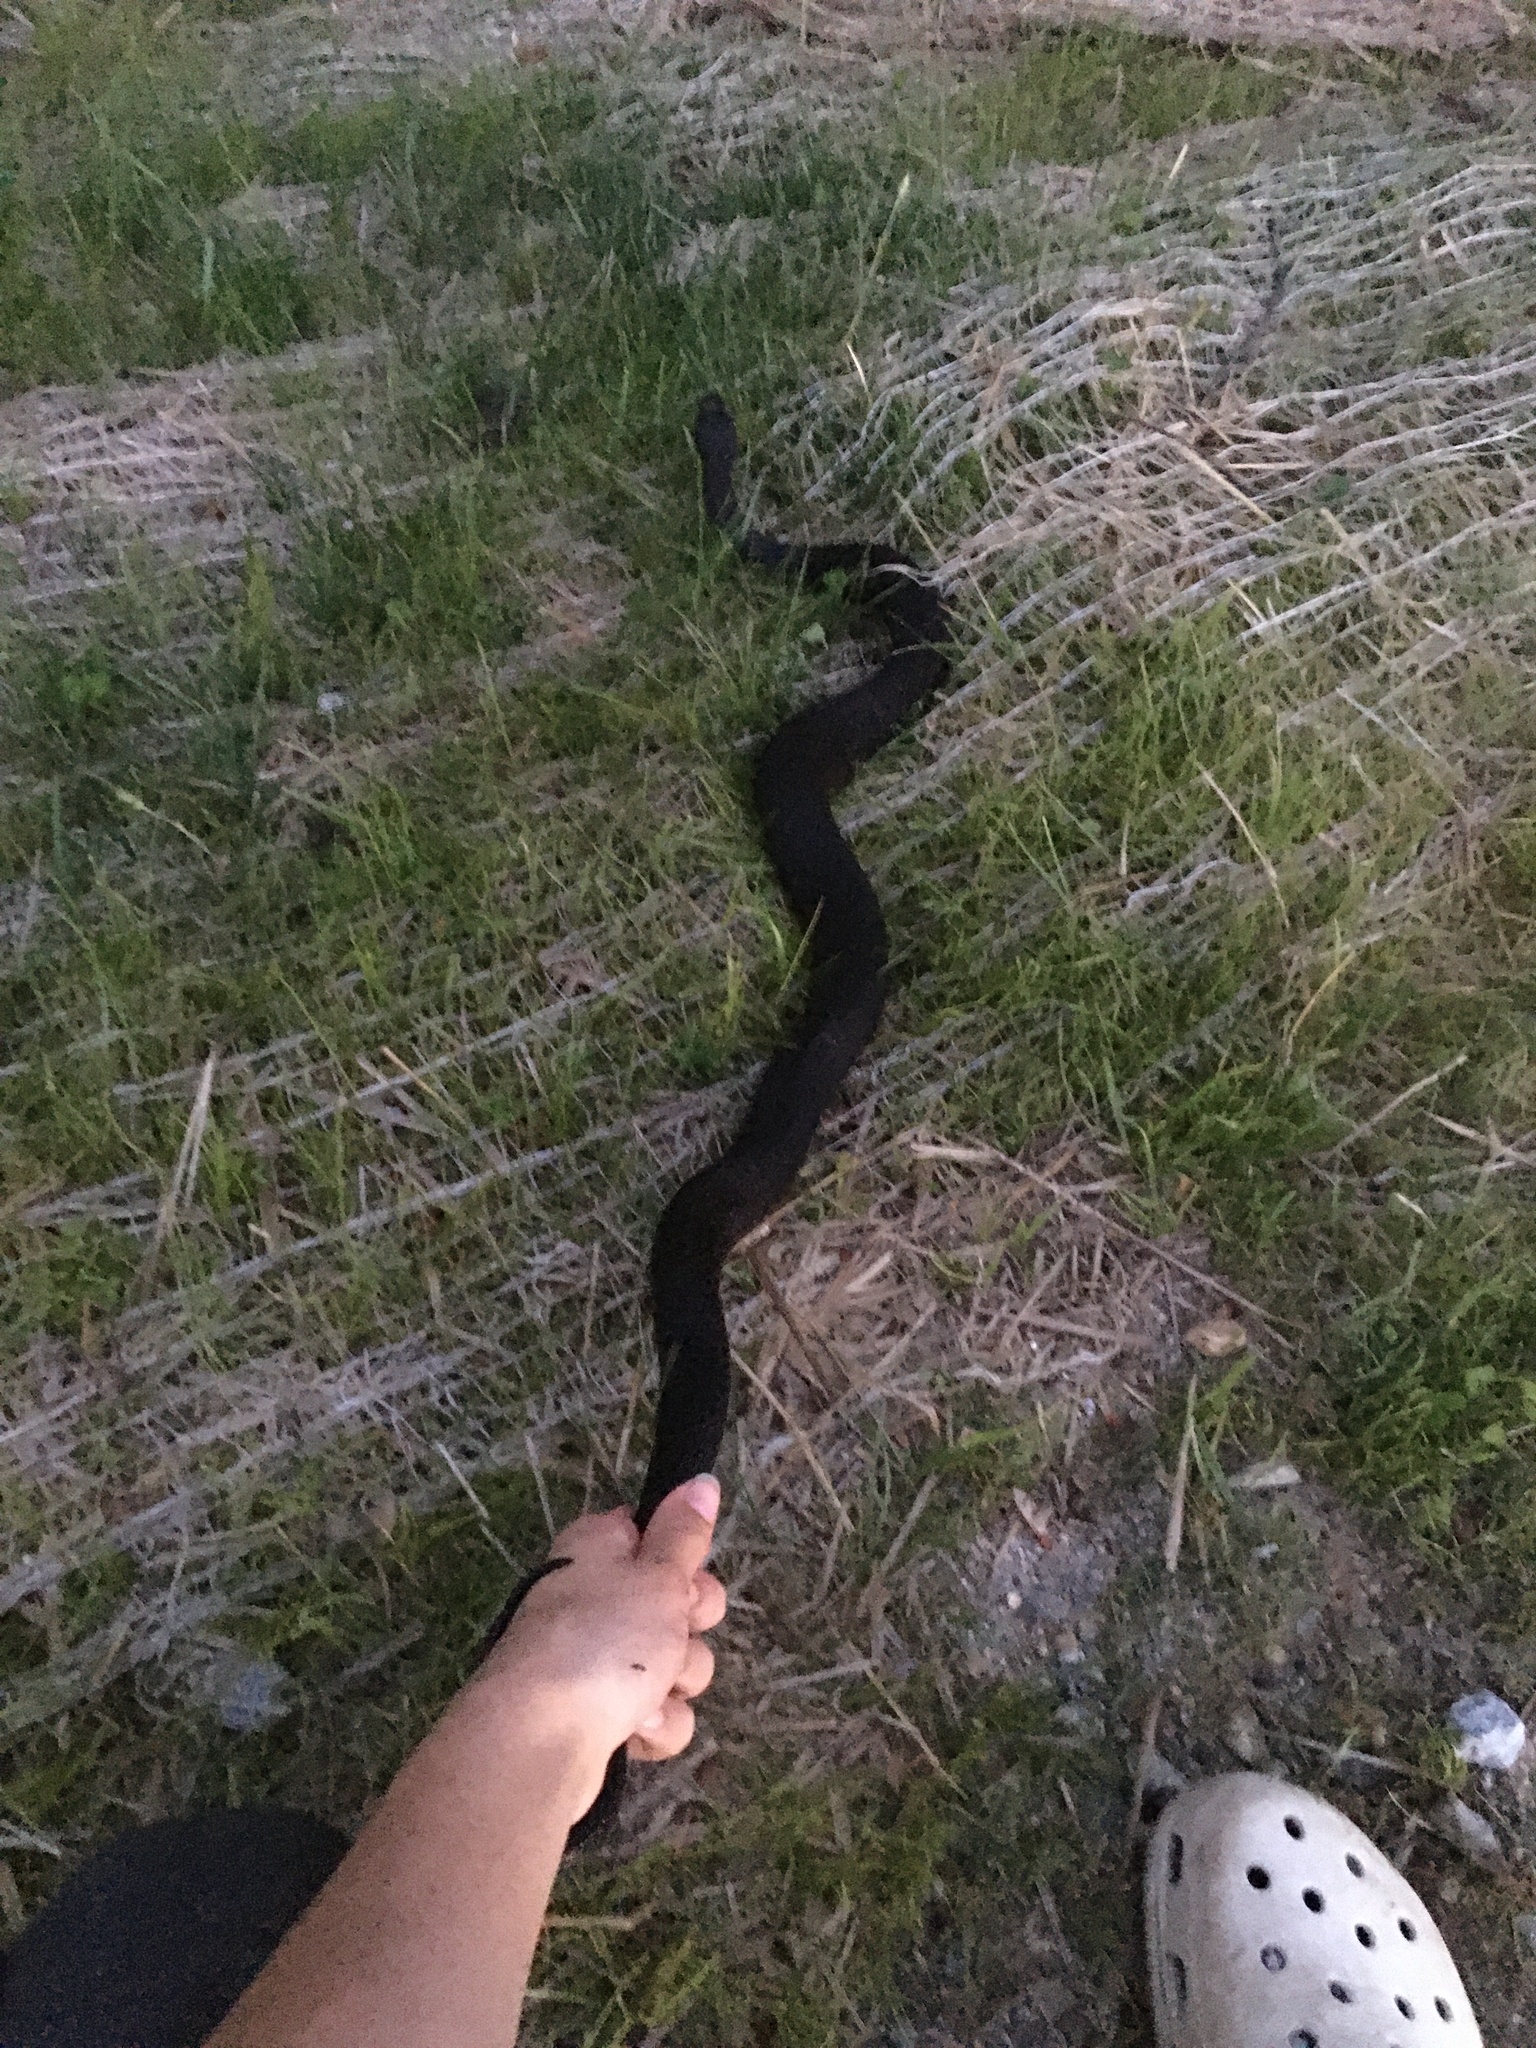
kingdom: Animalia
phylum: Chordata
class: Squamata
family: Colubridae
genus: Nerodia
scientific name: Nerodia sipedon
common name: Northern water snake
